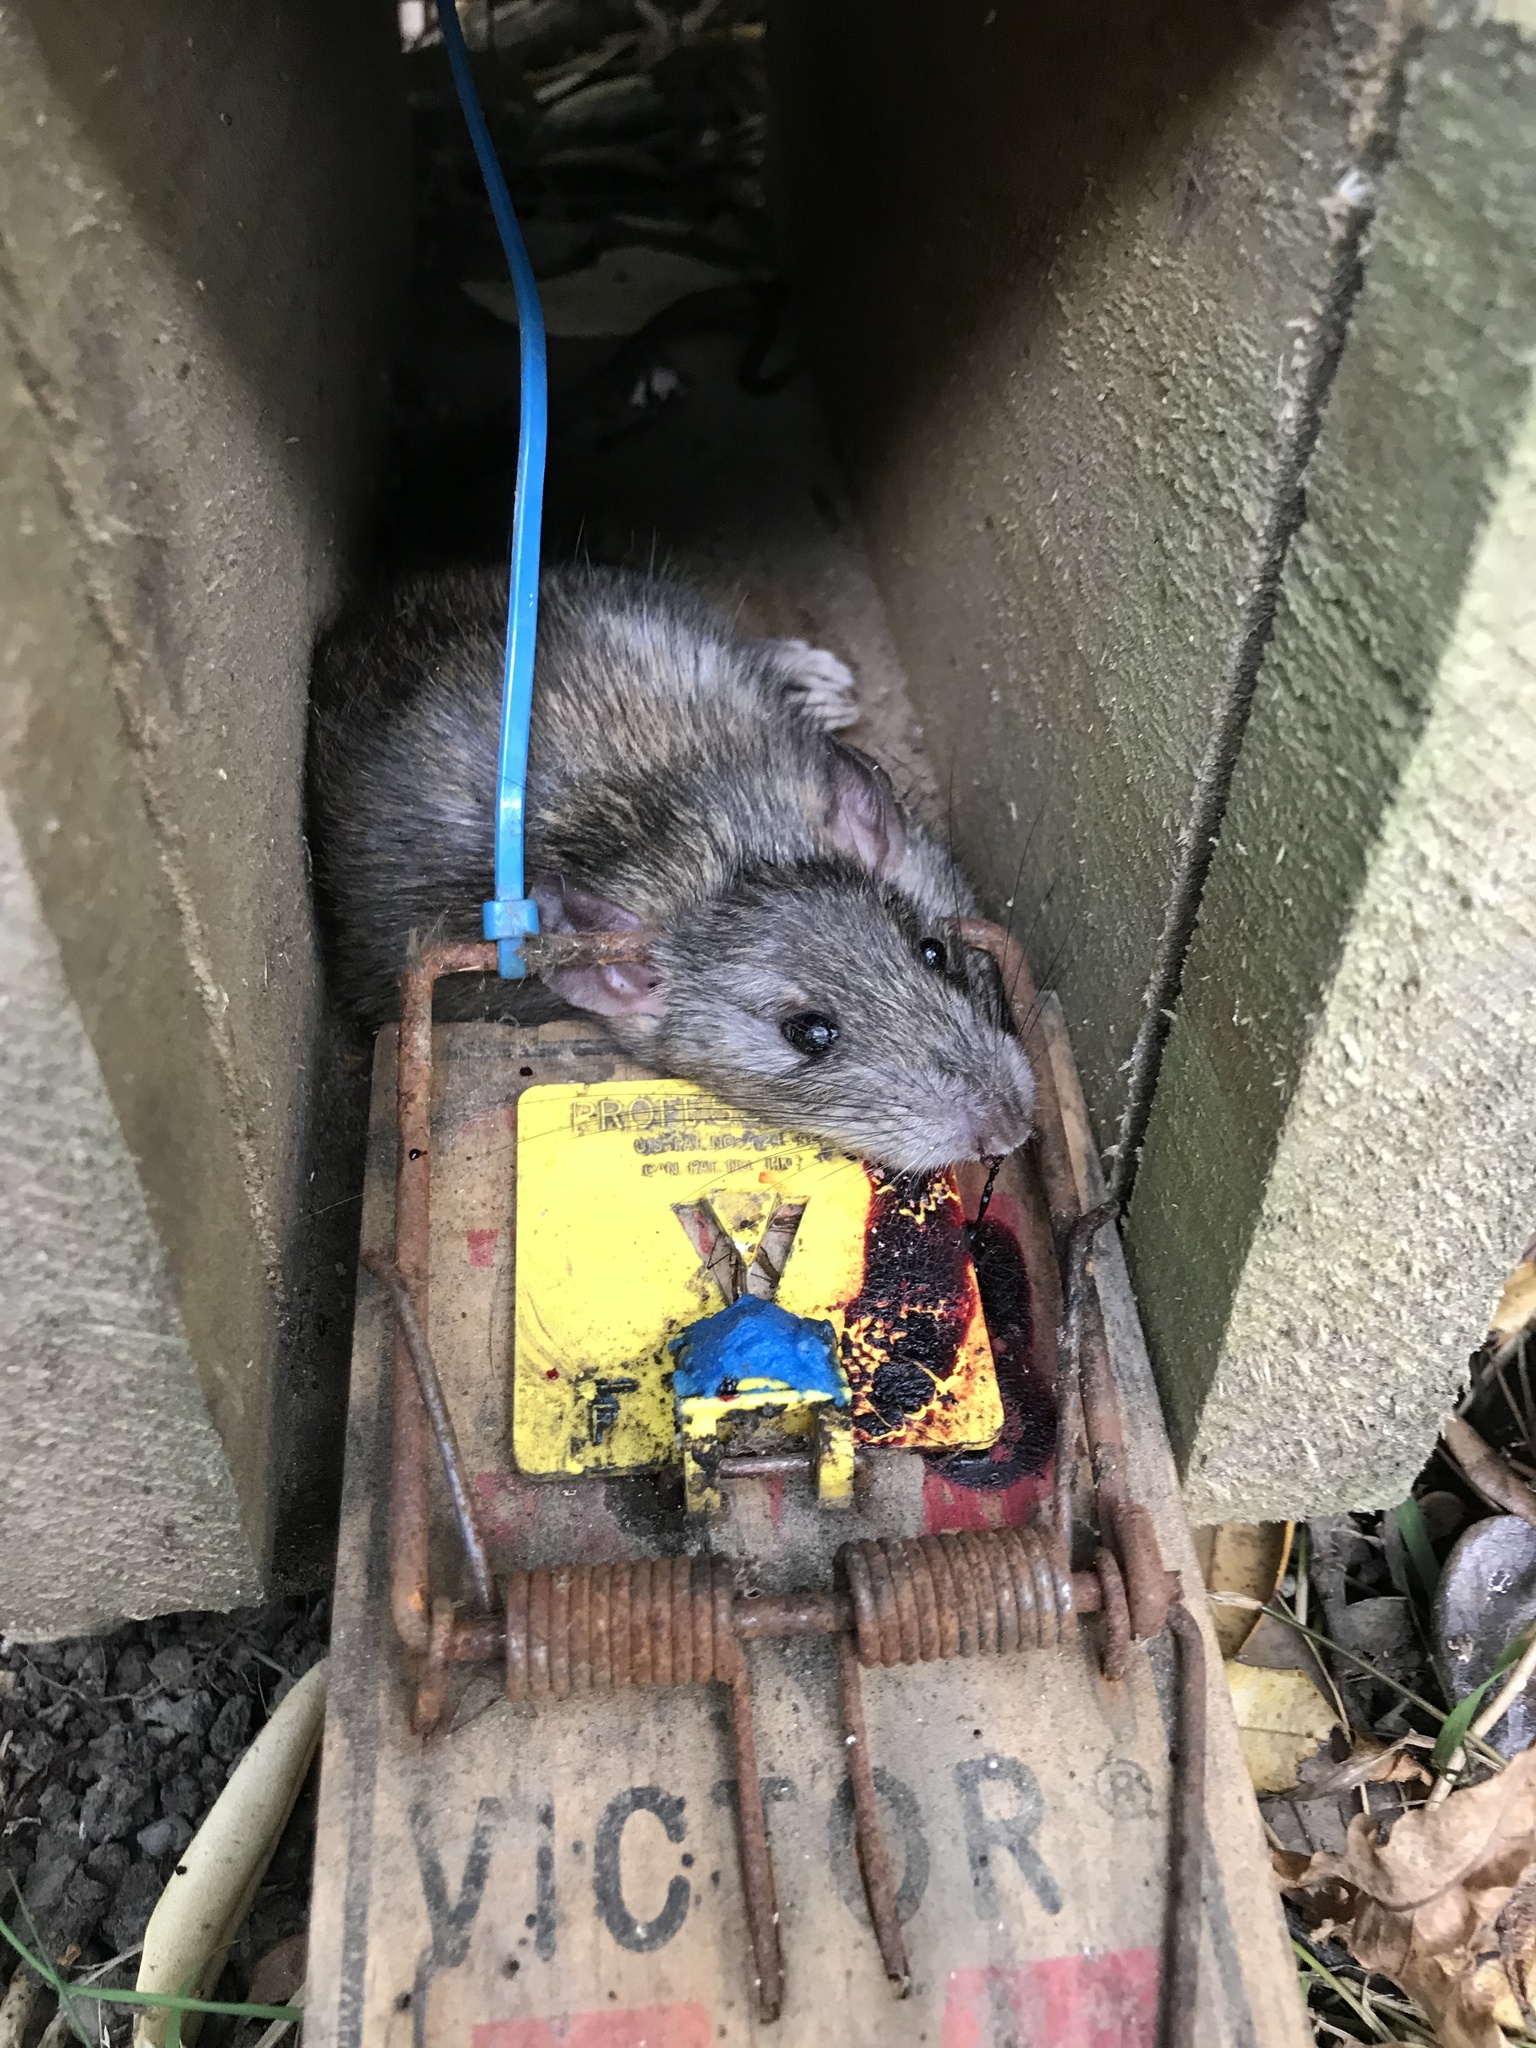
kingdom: Animalia
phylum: Chordata
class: Mammalia
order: Rodentia
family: Muridae
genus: Rattus
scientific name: Rattus rattus
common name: Black rat
